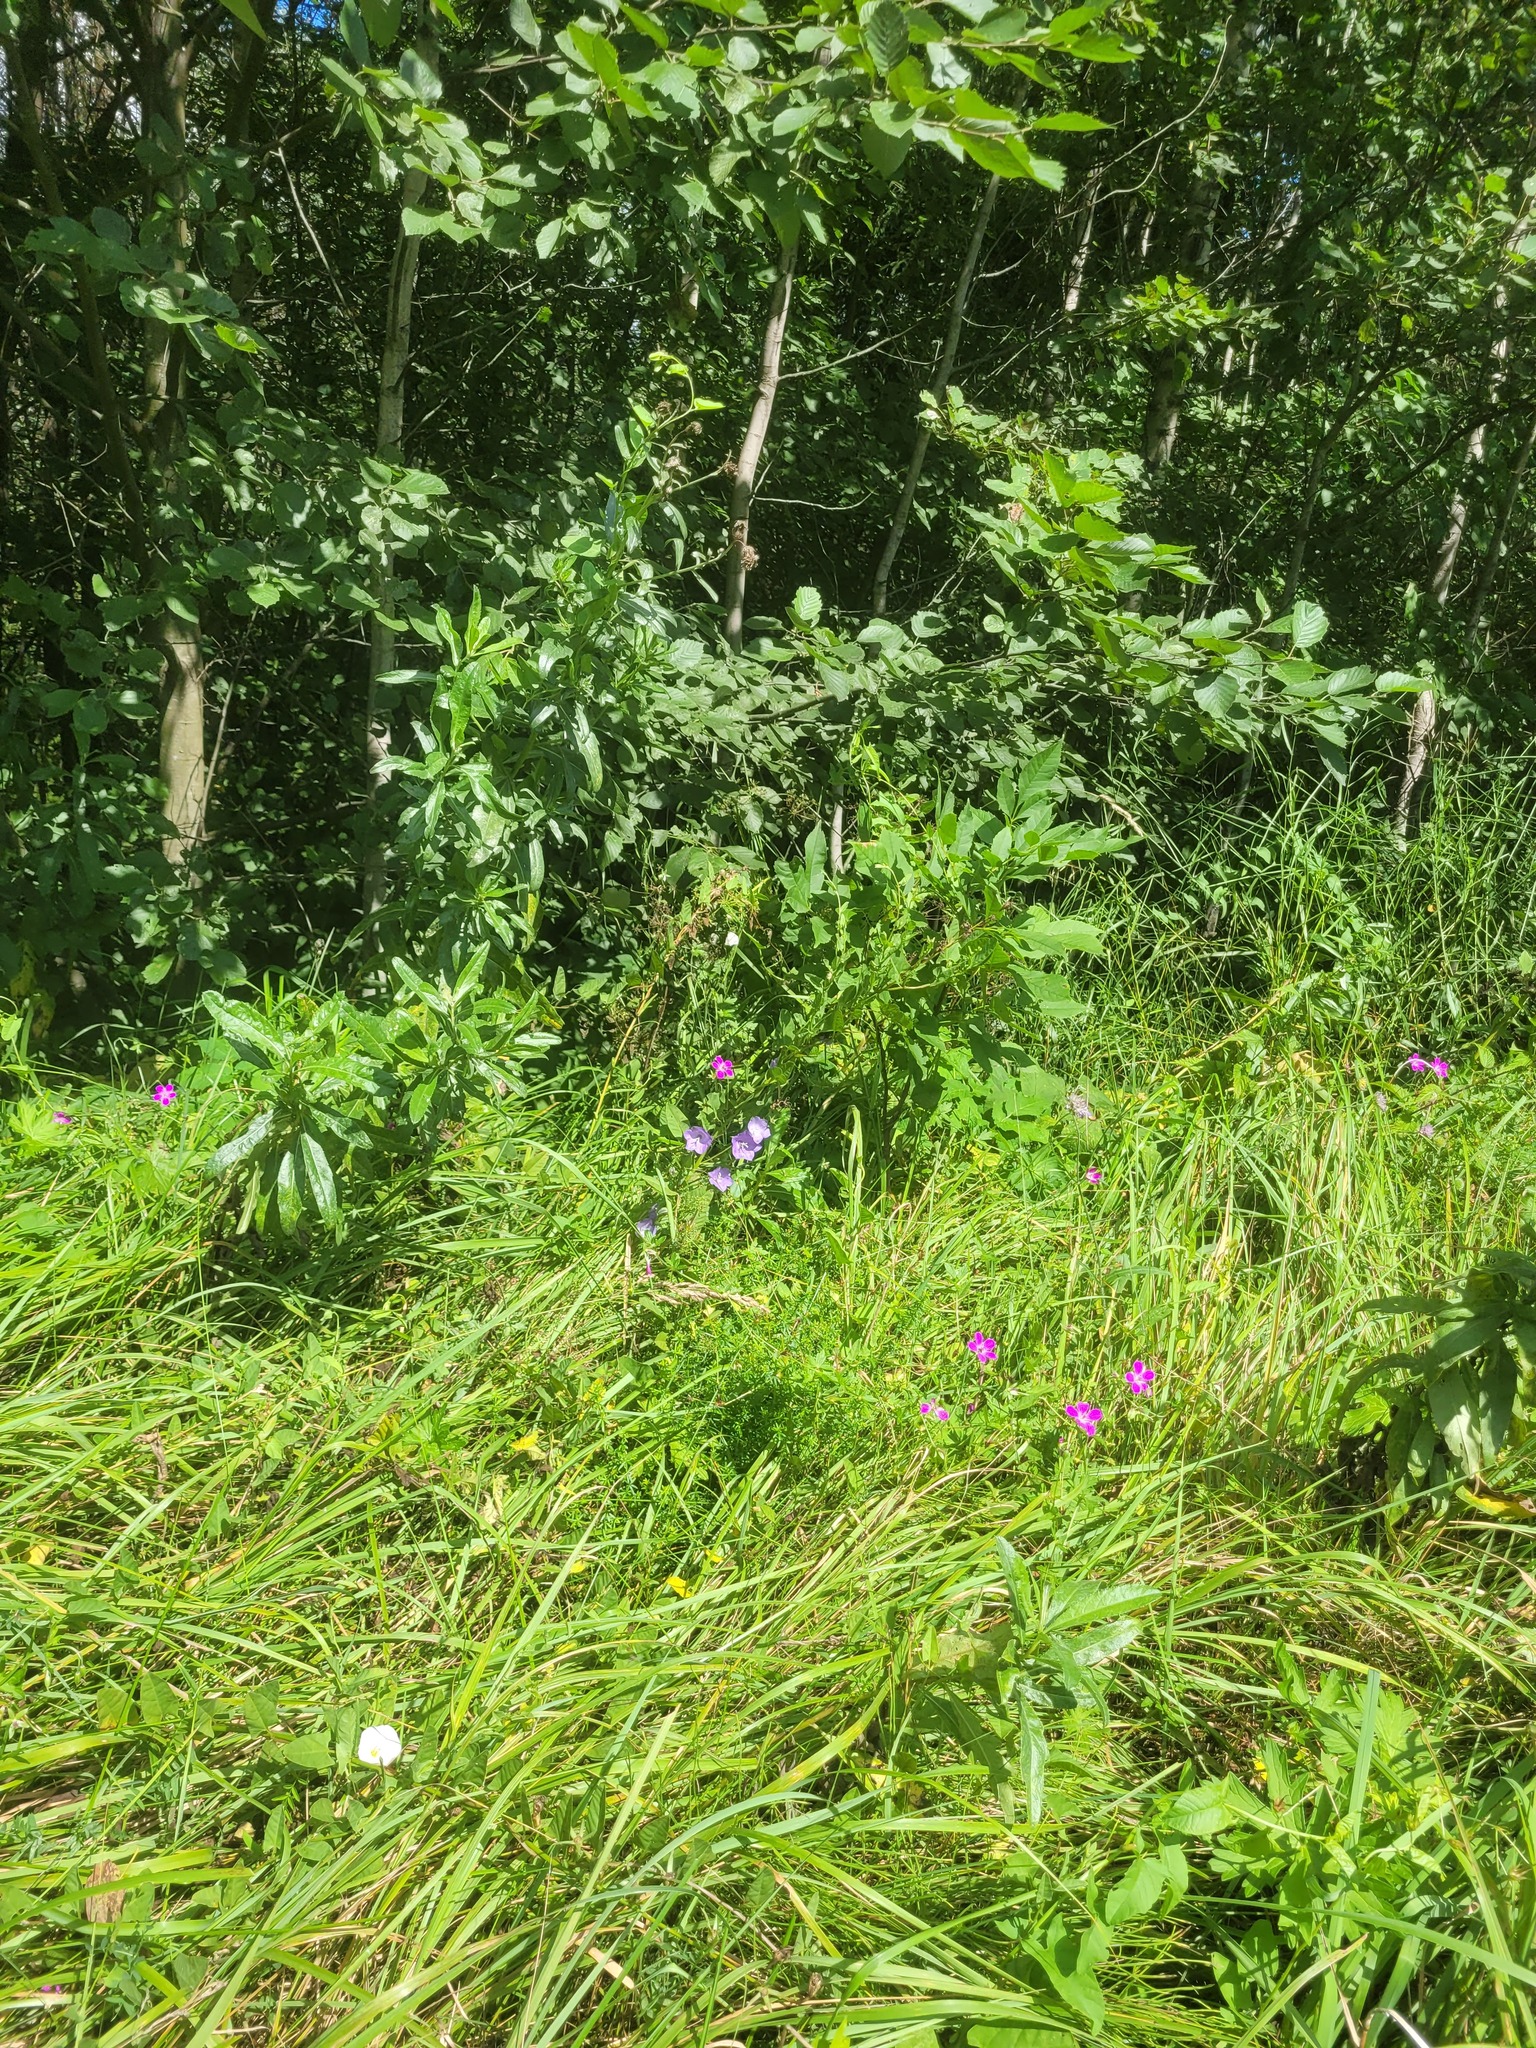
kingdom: Plantae
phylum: Tracheophyta
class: Magnoliopsida
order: Asterales
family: Campanulaceae
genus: Campanula
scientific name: Campanula persicifolia
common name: Peach-leaved bellflower
